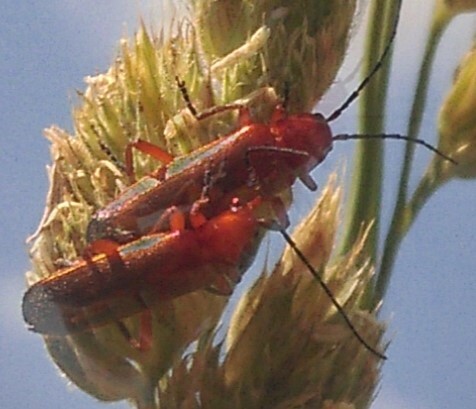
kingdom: Animalia
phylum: Arthropoda
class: Insecta
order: Coleoptera
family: Cantharidae
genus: Rhagonycha
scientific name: Rhagonycha fulva
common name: Common red soldier beetle
